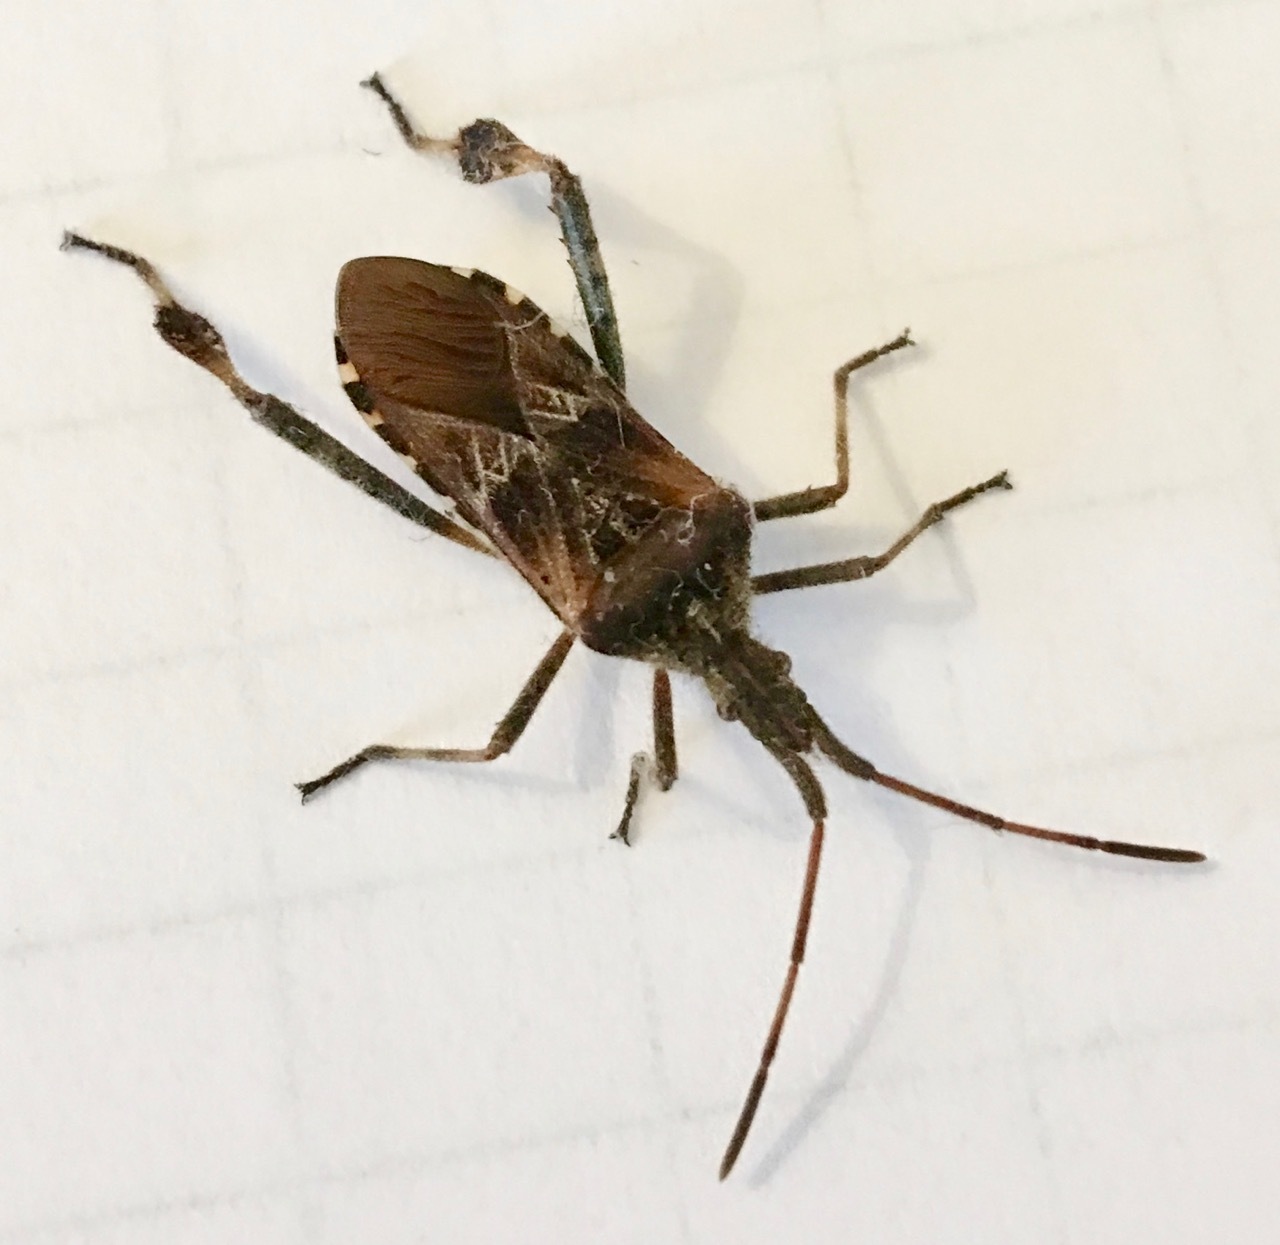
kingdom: Animalia
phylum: Arthropoda
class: Insecta
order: Hemiptera
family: Coreidae
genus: Leptoglossus
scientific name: Leptoglossus occidentalis
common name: Western conifer-seed bug
